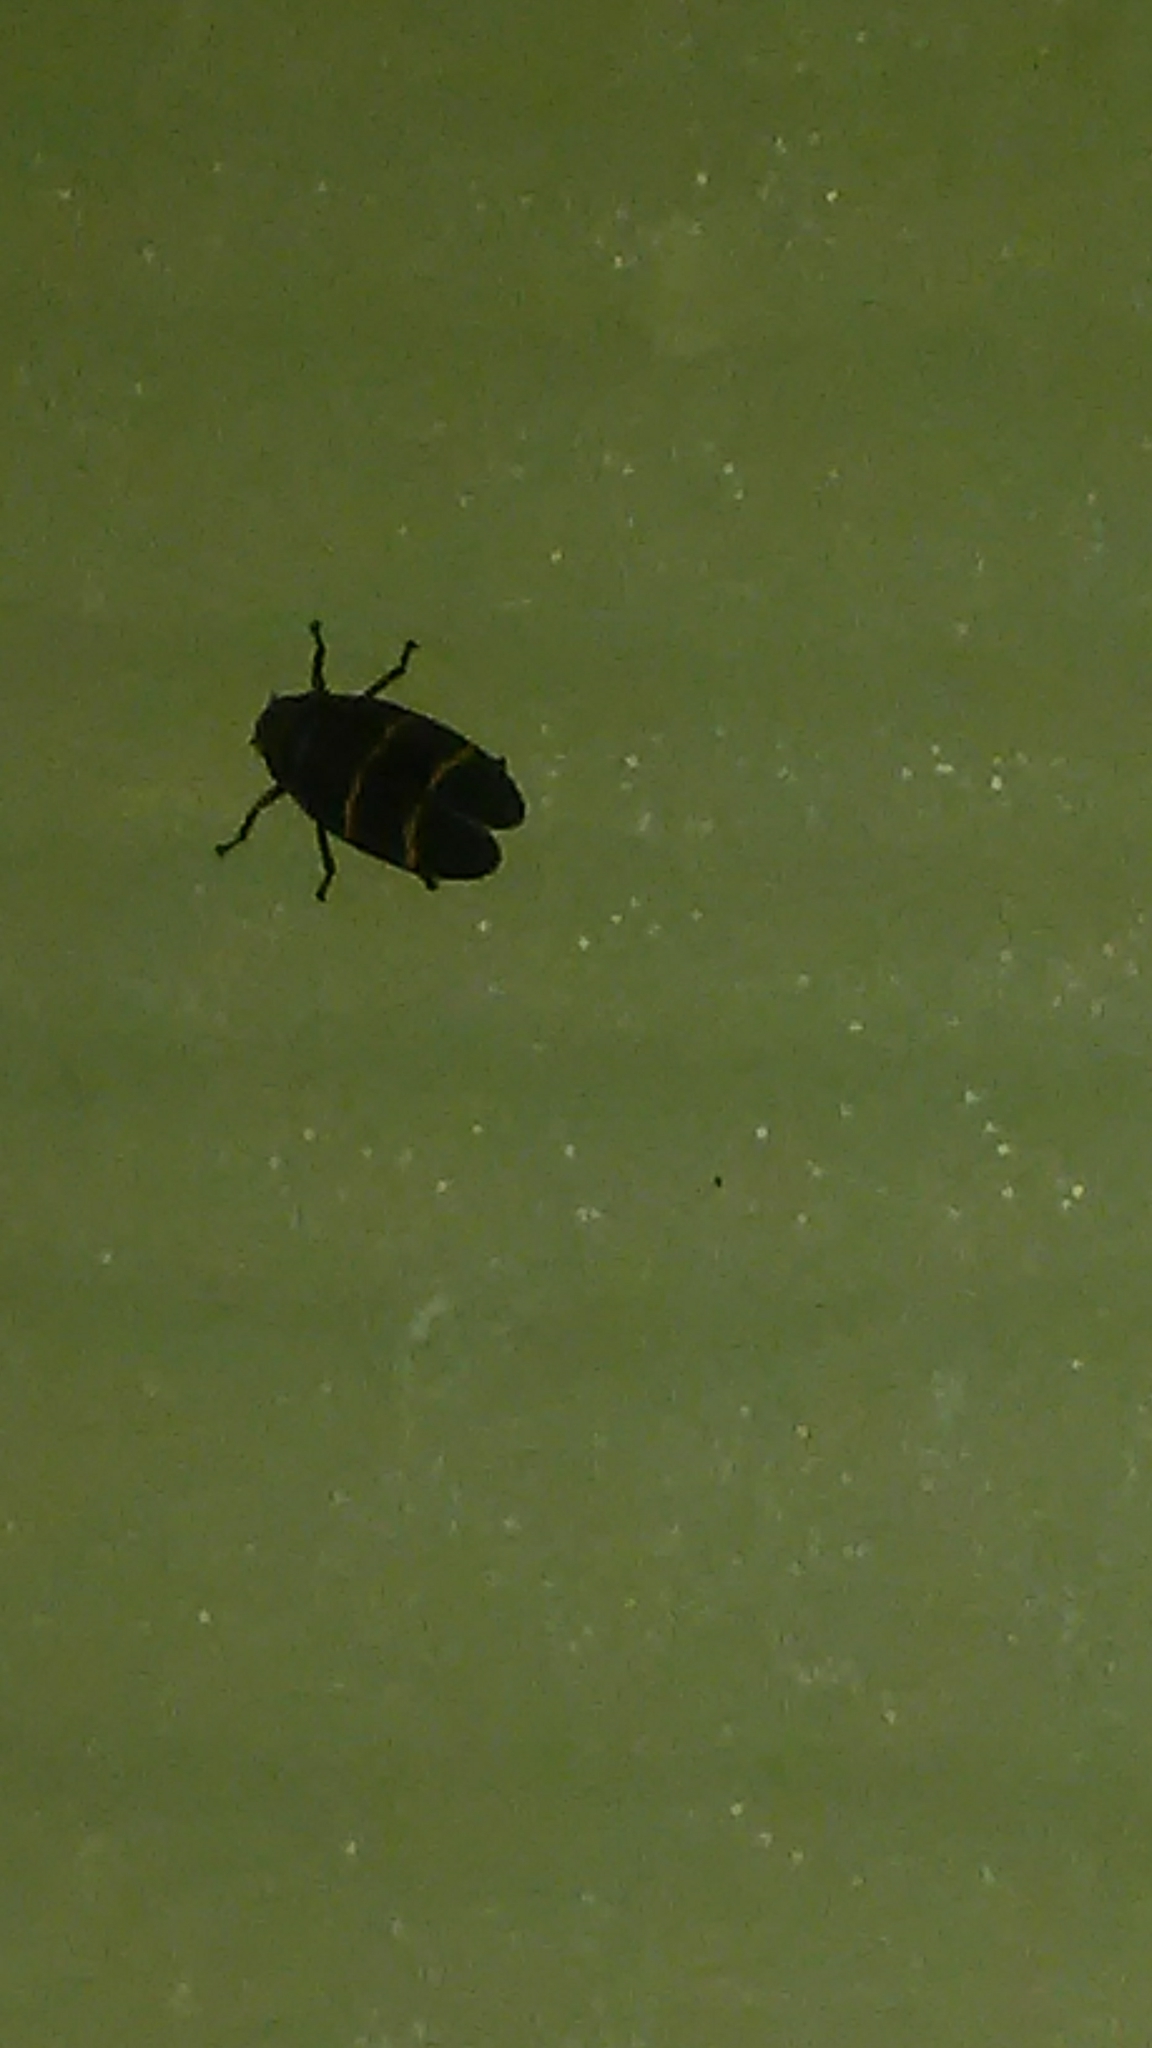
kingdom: Animalia
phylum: Arthropoda
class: Insecta
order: Hemiptera
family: Cercopidae
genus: Prosapia
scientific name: Prosapia bicincta
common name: Twolined spittlebug
